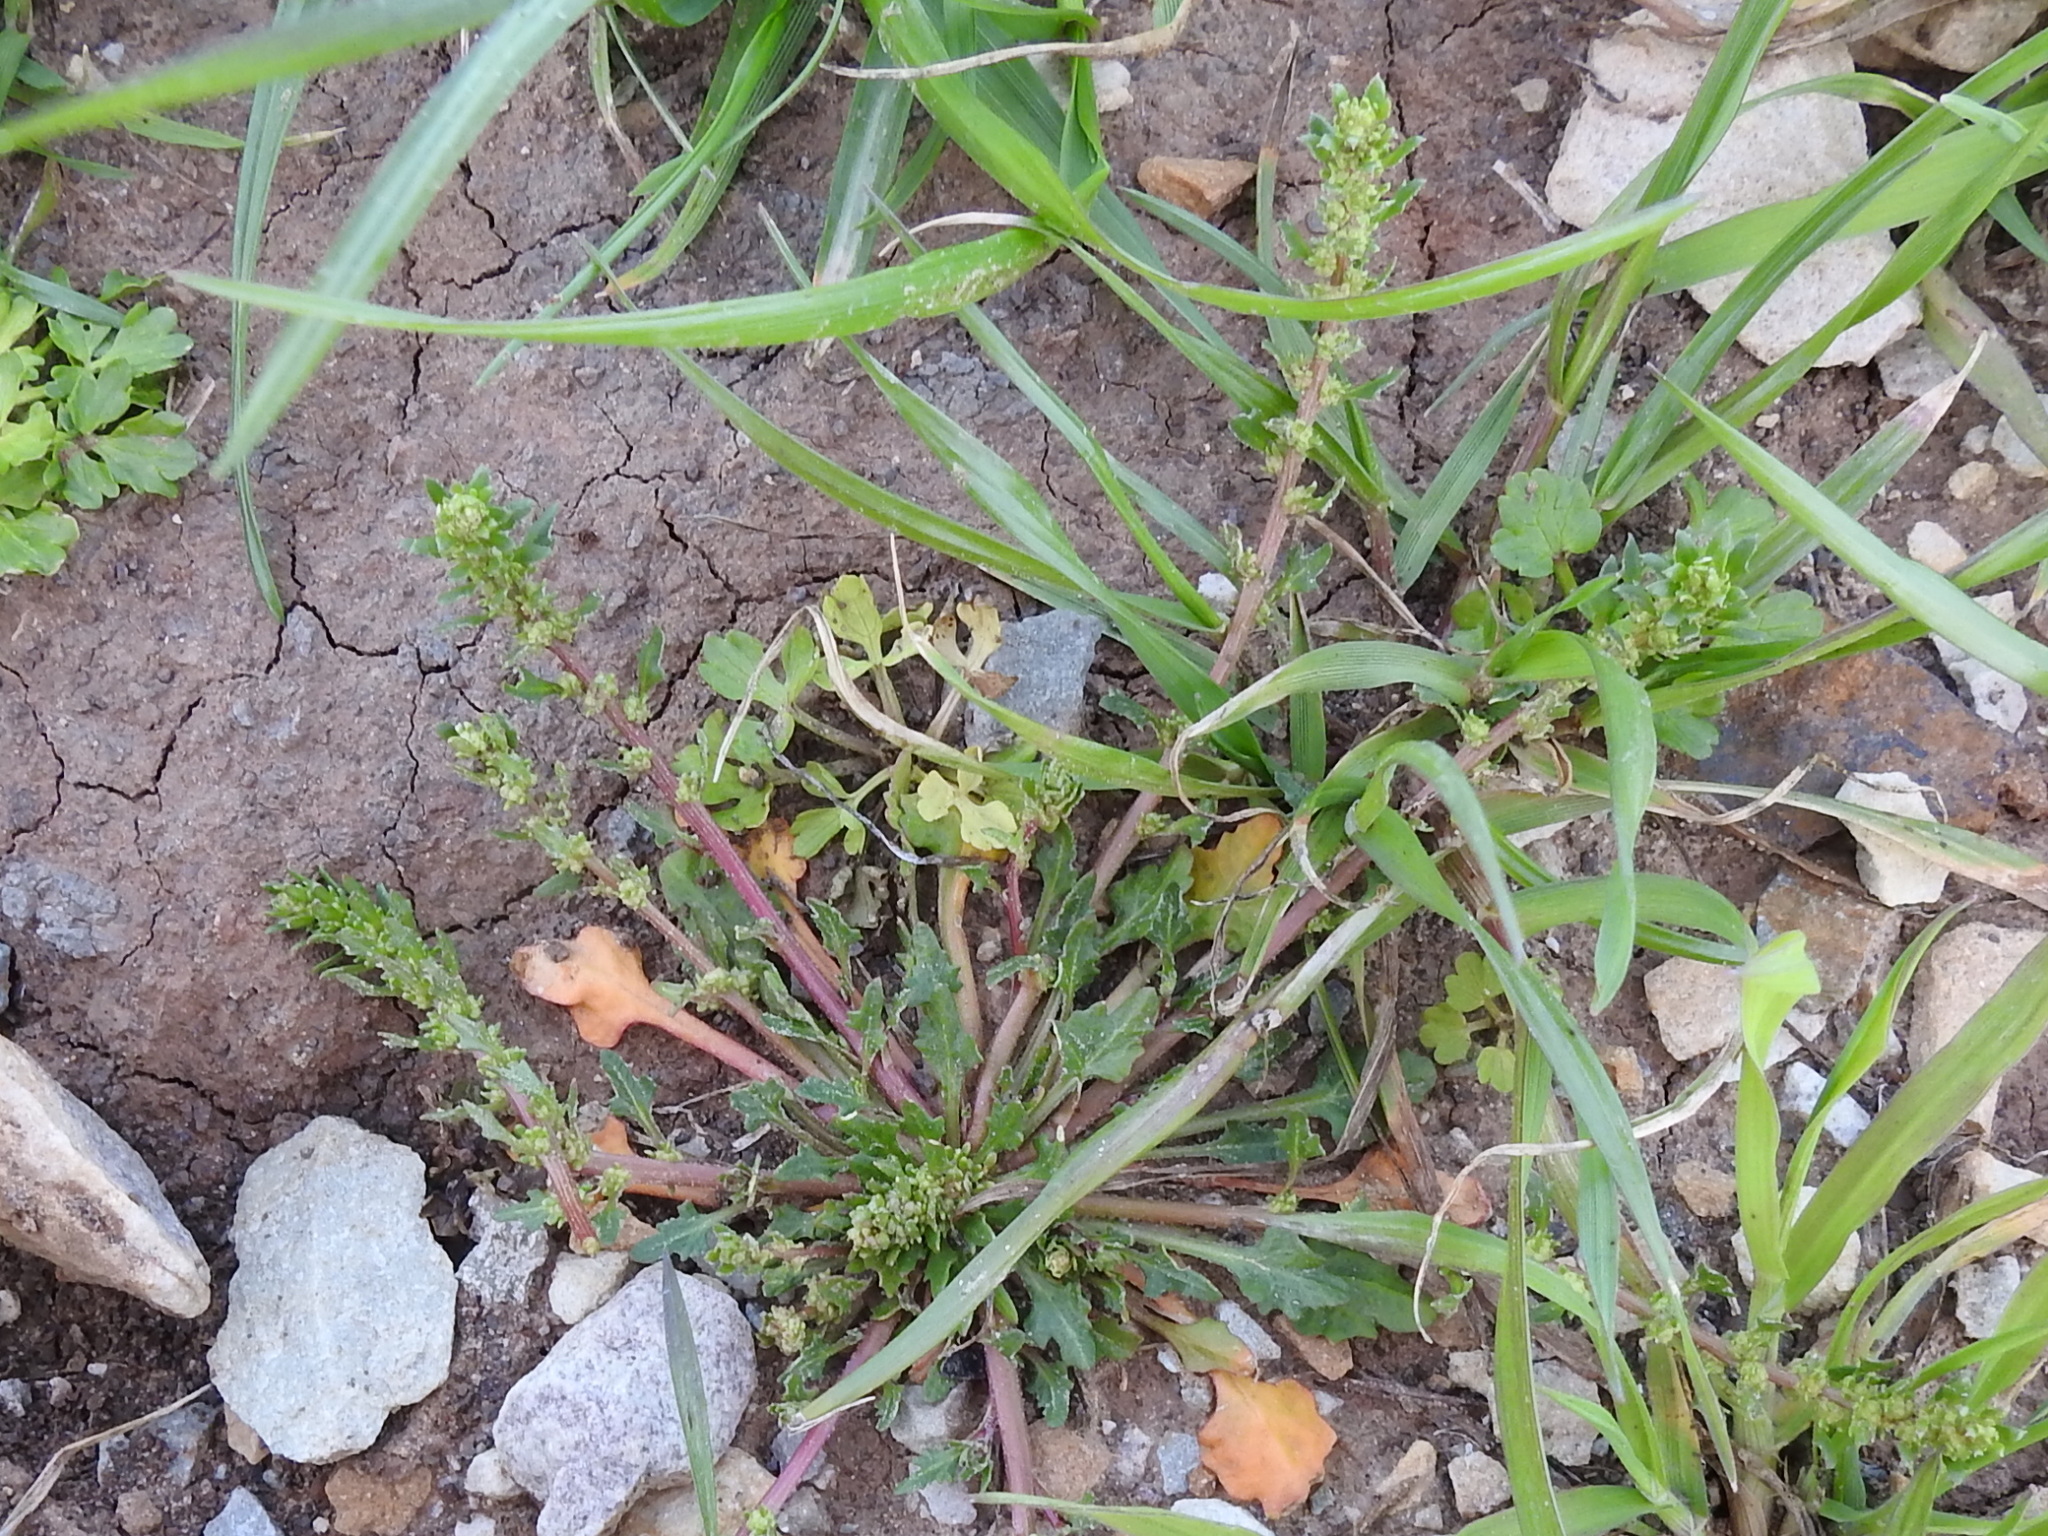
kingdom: Plantae
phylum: Tracheophyta
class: Magnoliopsida
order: Caryophyllales
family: Amaranthaceae
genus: Blitum
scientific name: Blitum nuttallianum
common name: Poverty-weed
